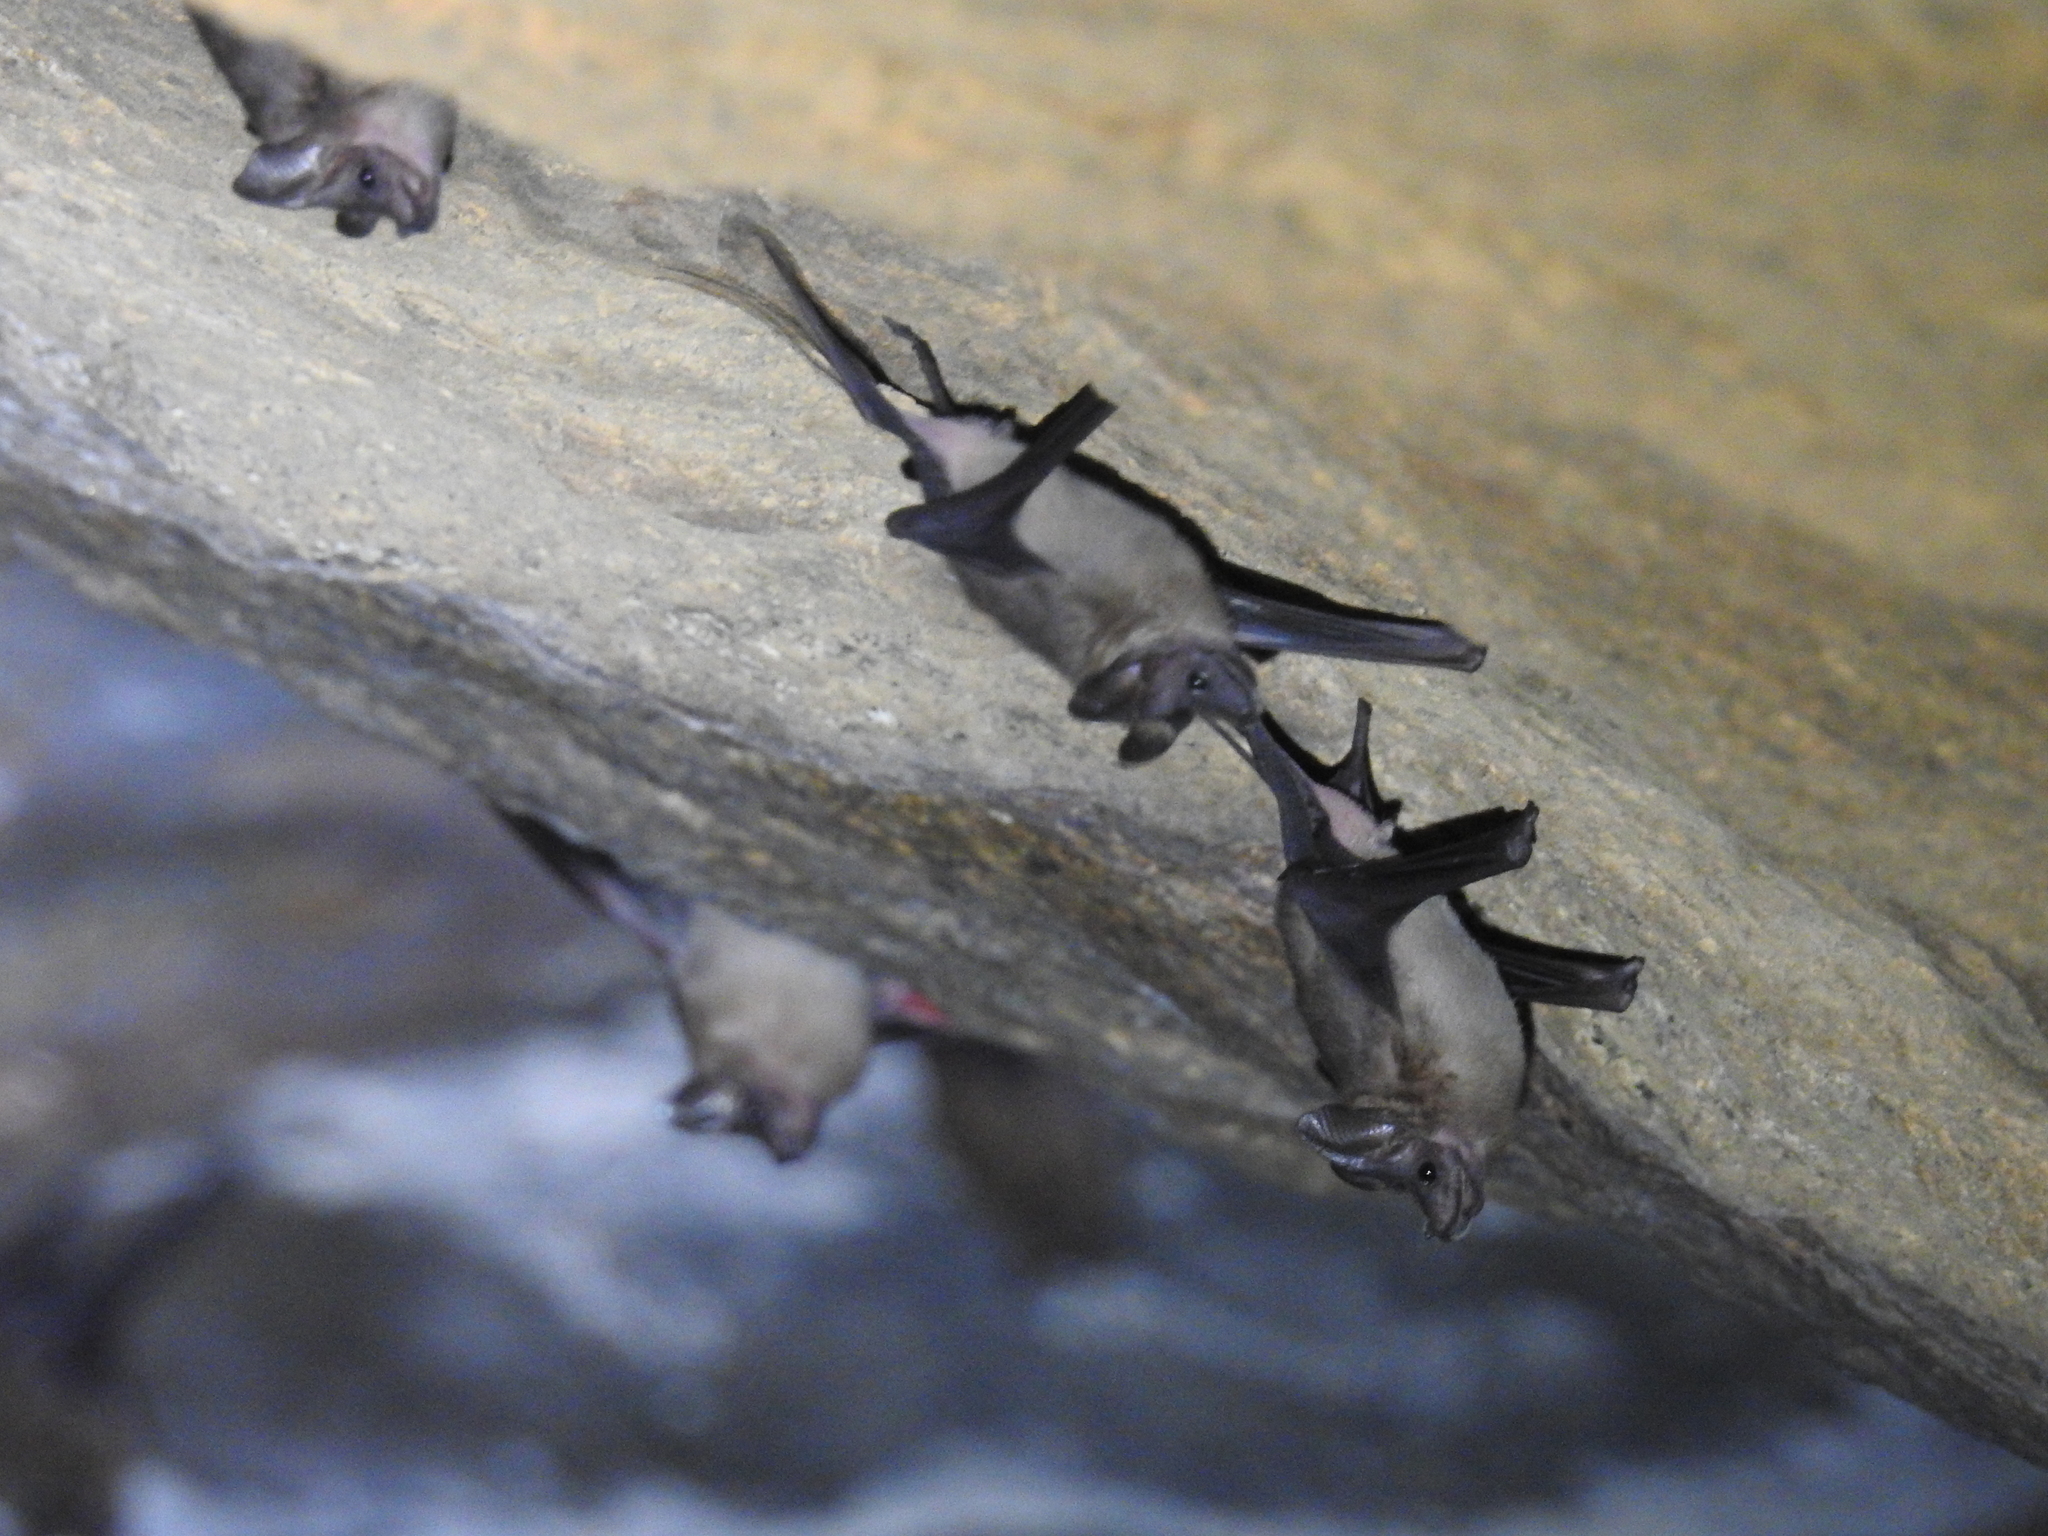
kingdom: Animalia
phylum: Chordata
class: Mammalia
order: Chiroptera
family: Rhinopomatidae
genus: Rhinopoma
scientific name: Rhinopoma hardwickii
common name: Lesser mouse-tailed bat
